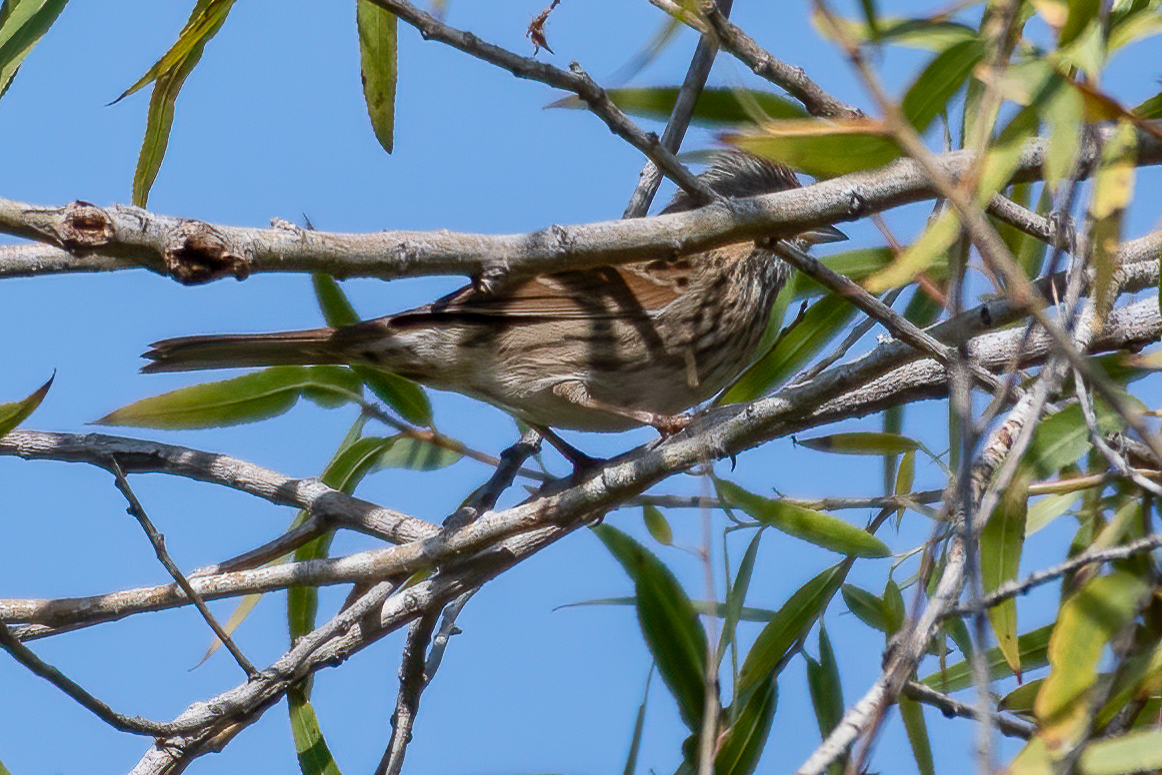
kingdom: Animalia
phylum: Chordata
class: Aves
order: Passeriformes
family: Passerellidae
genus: Melospiza
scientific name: Melospiza lincolnii
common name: Lincoln's sparrow
